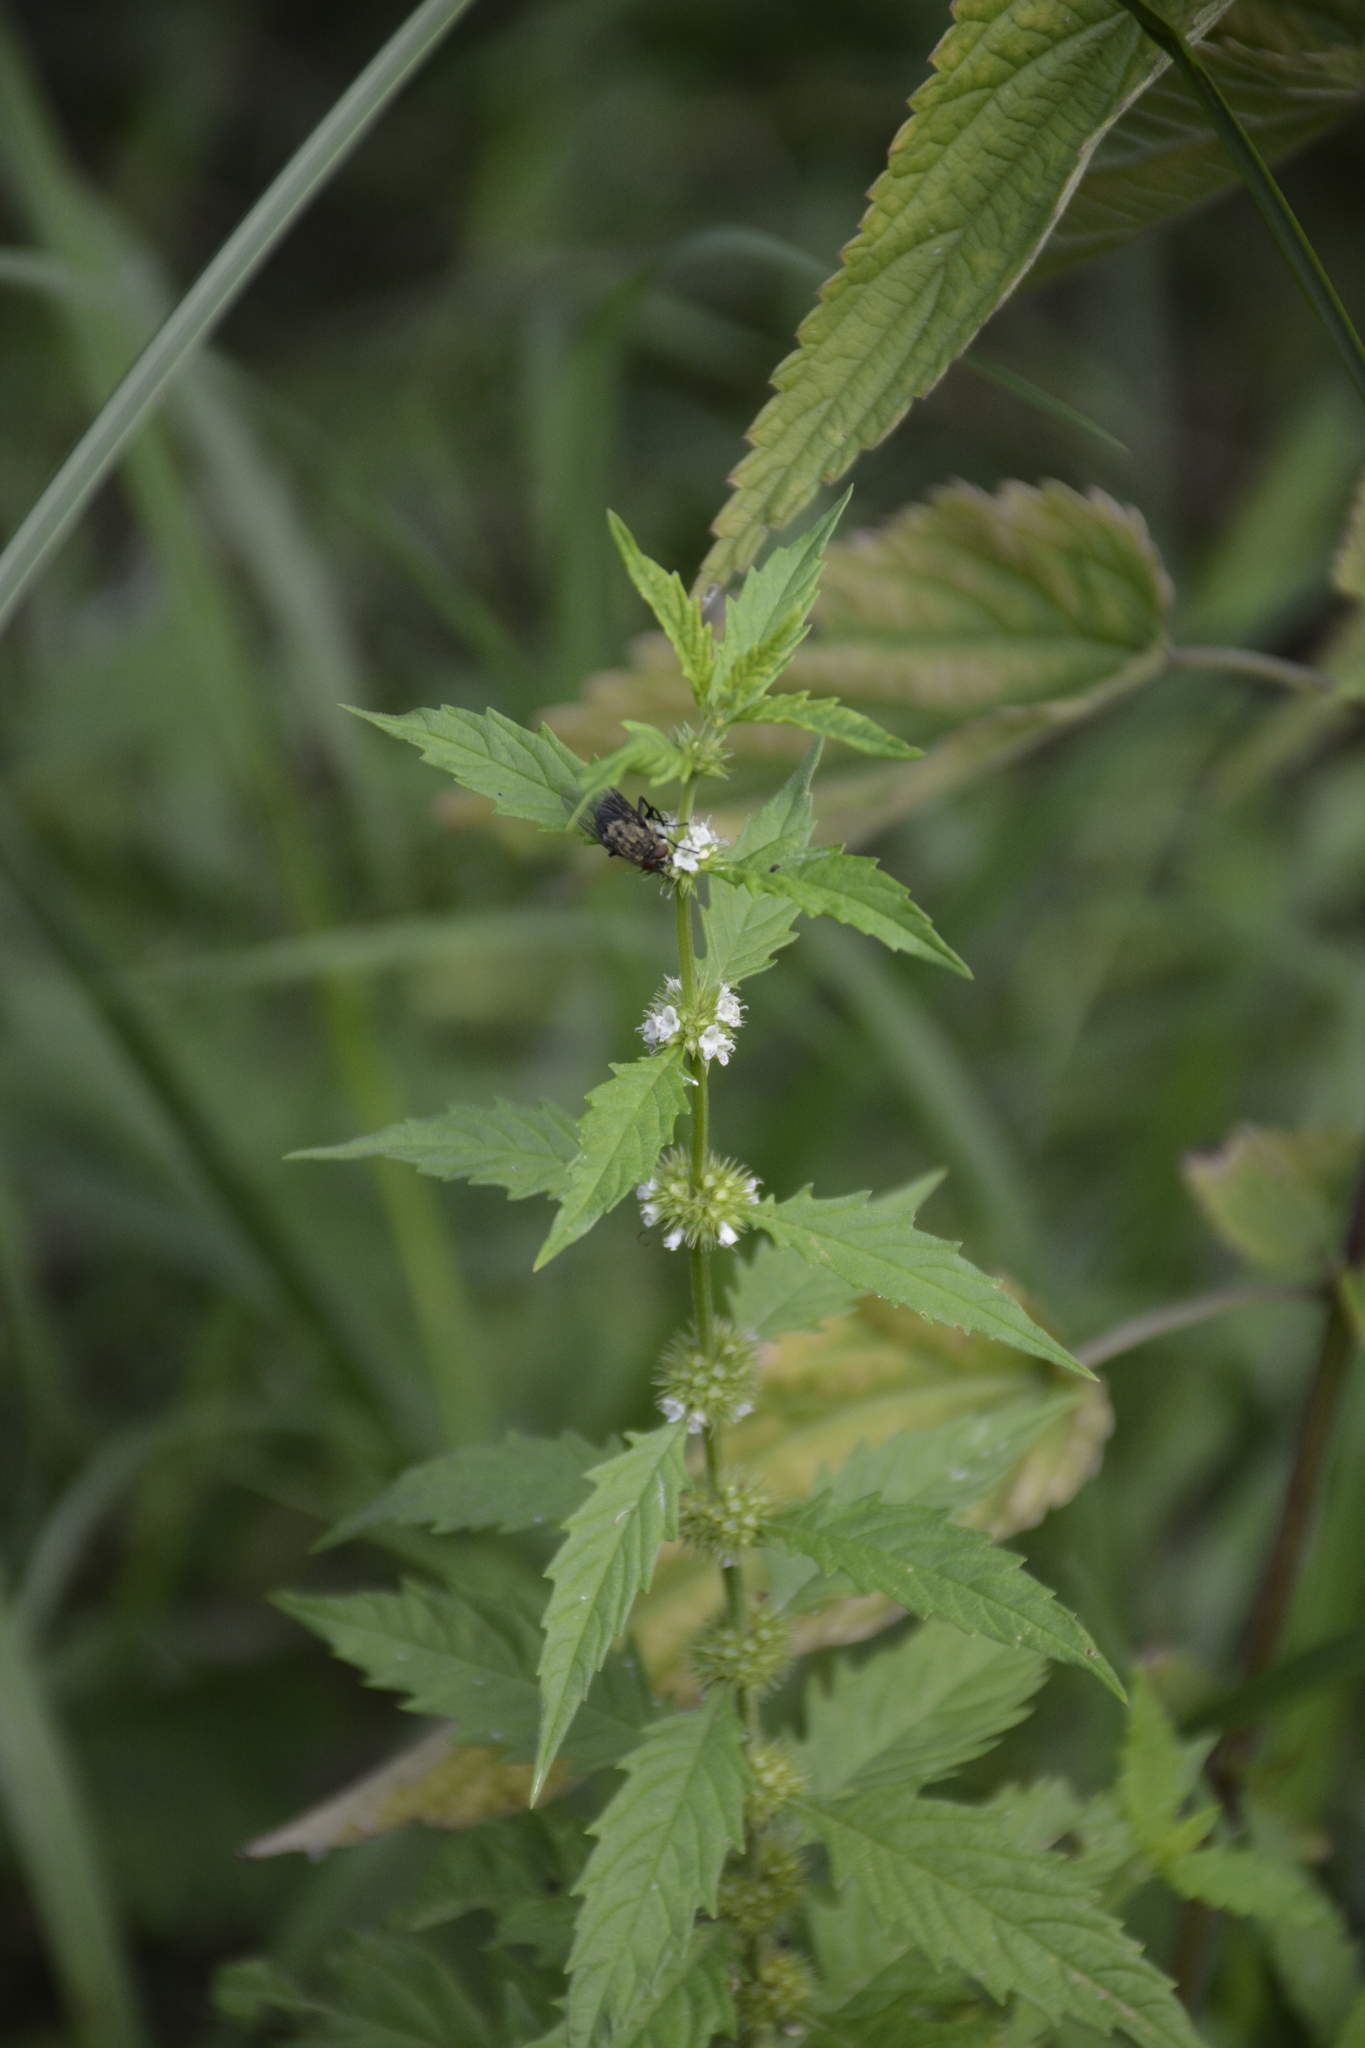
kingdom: Plantae
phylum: Tracheophyta
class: Magnoliopsida
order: Lamiales
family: Lamiaceae
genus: Lycopus
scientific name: Lycopus europaeus
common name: European bugleweed
